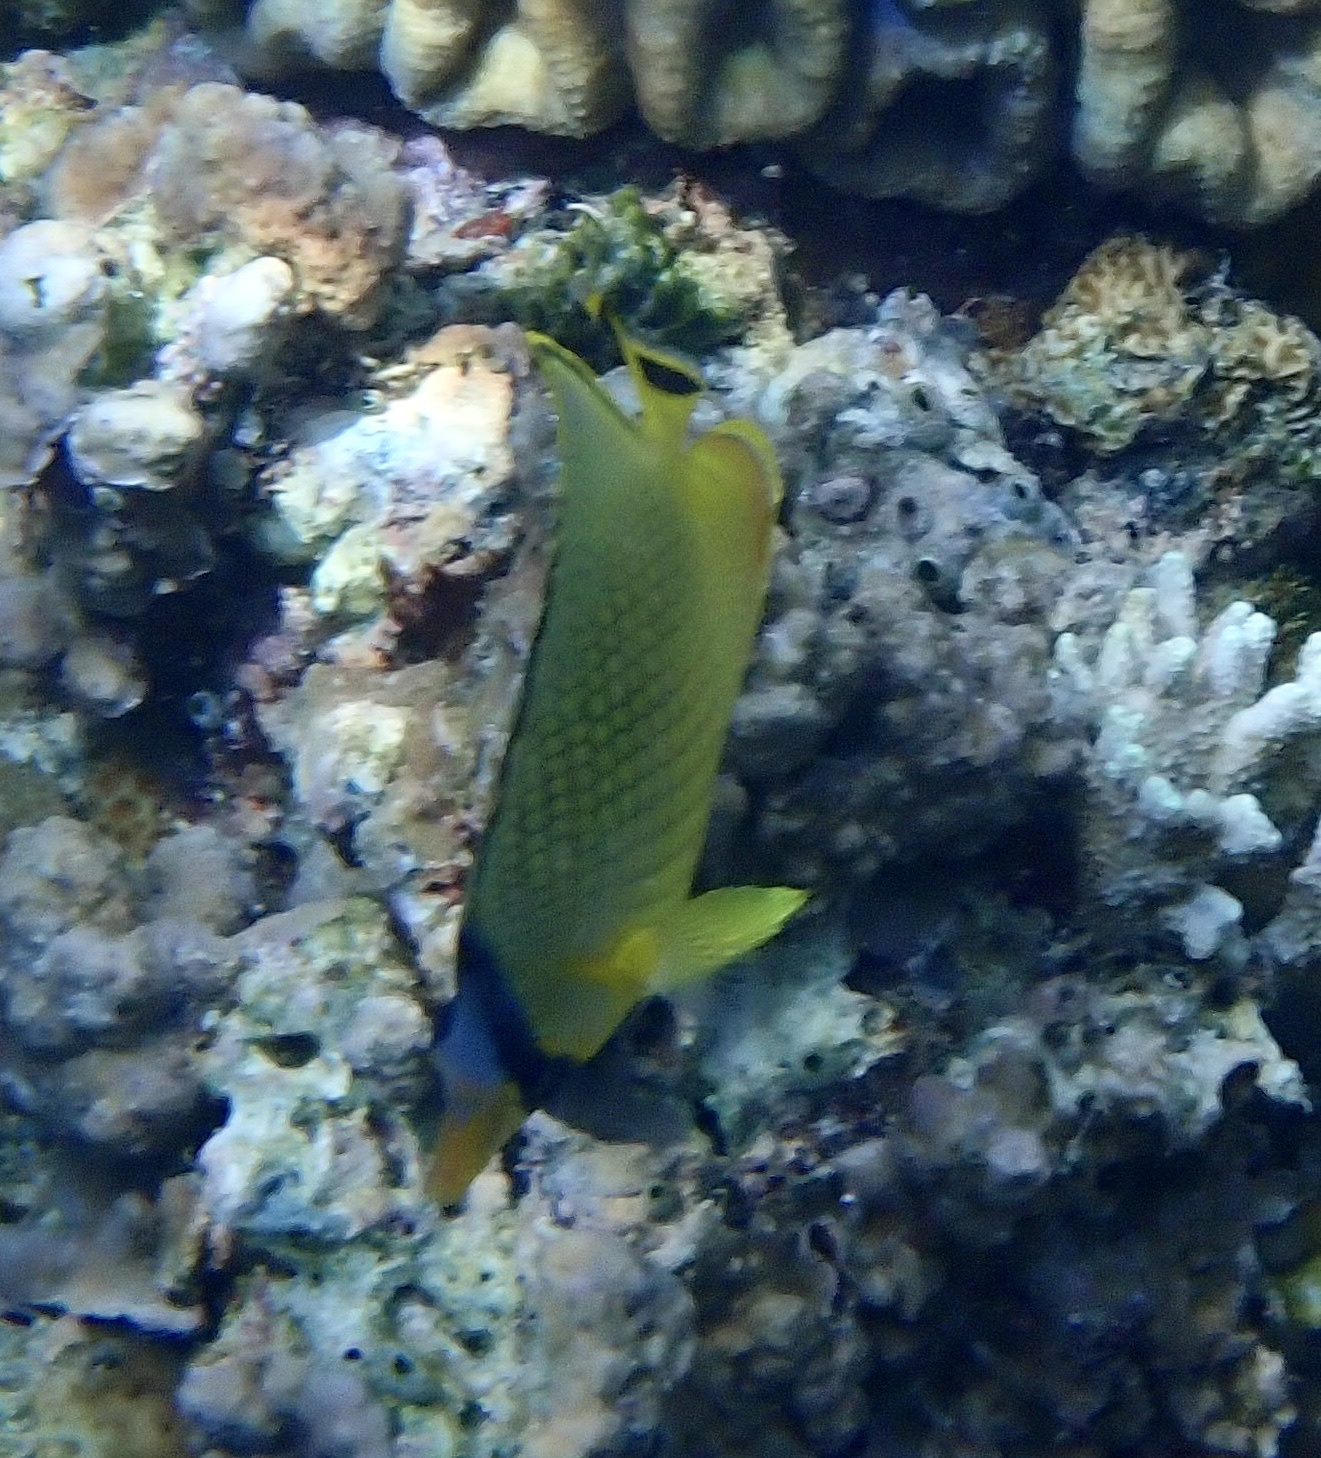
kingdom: Animalia
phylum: Chordata
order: Perciformes
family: Chaetodontidae
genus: Chaetodon
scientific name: Chaetodon rafflesii
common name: Latticed butterflyfish
